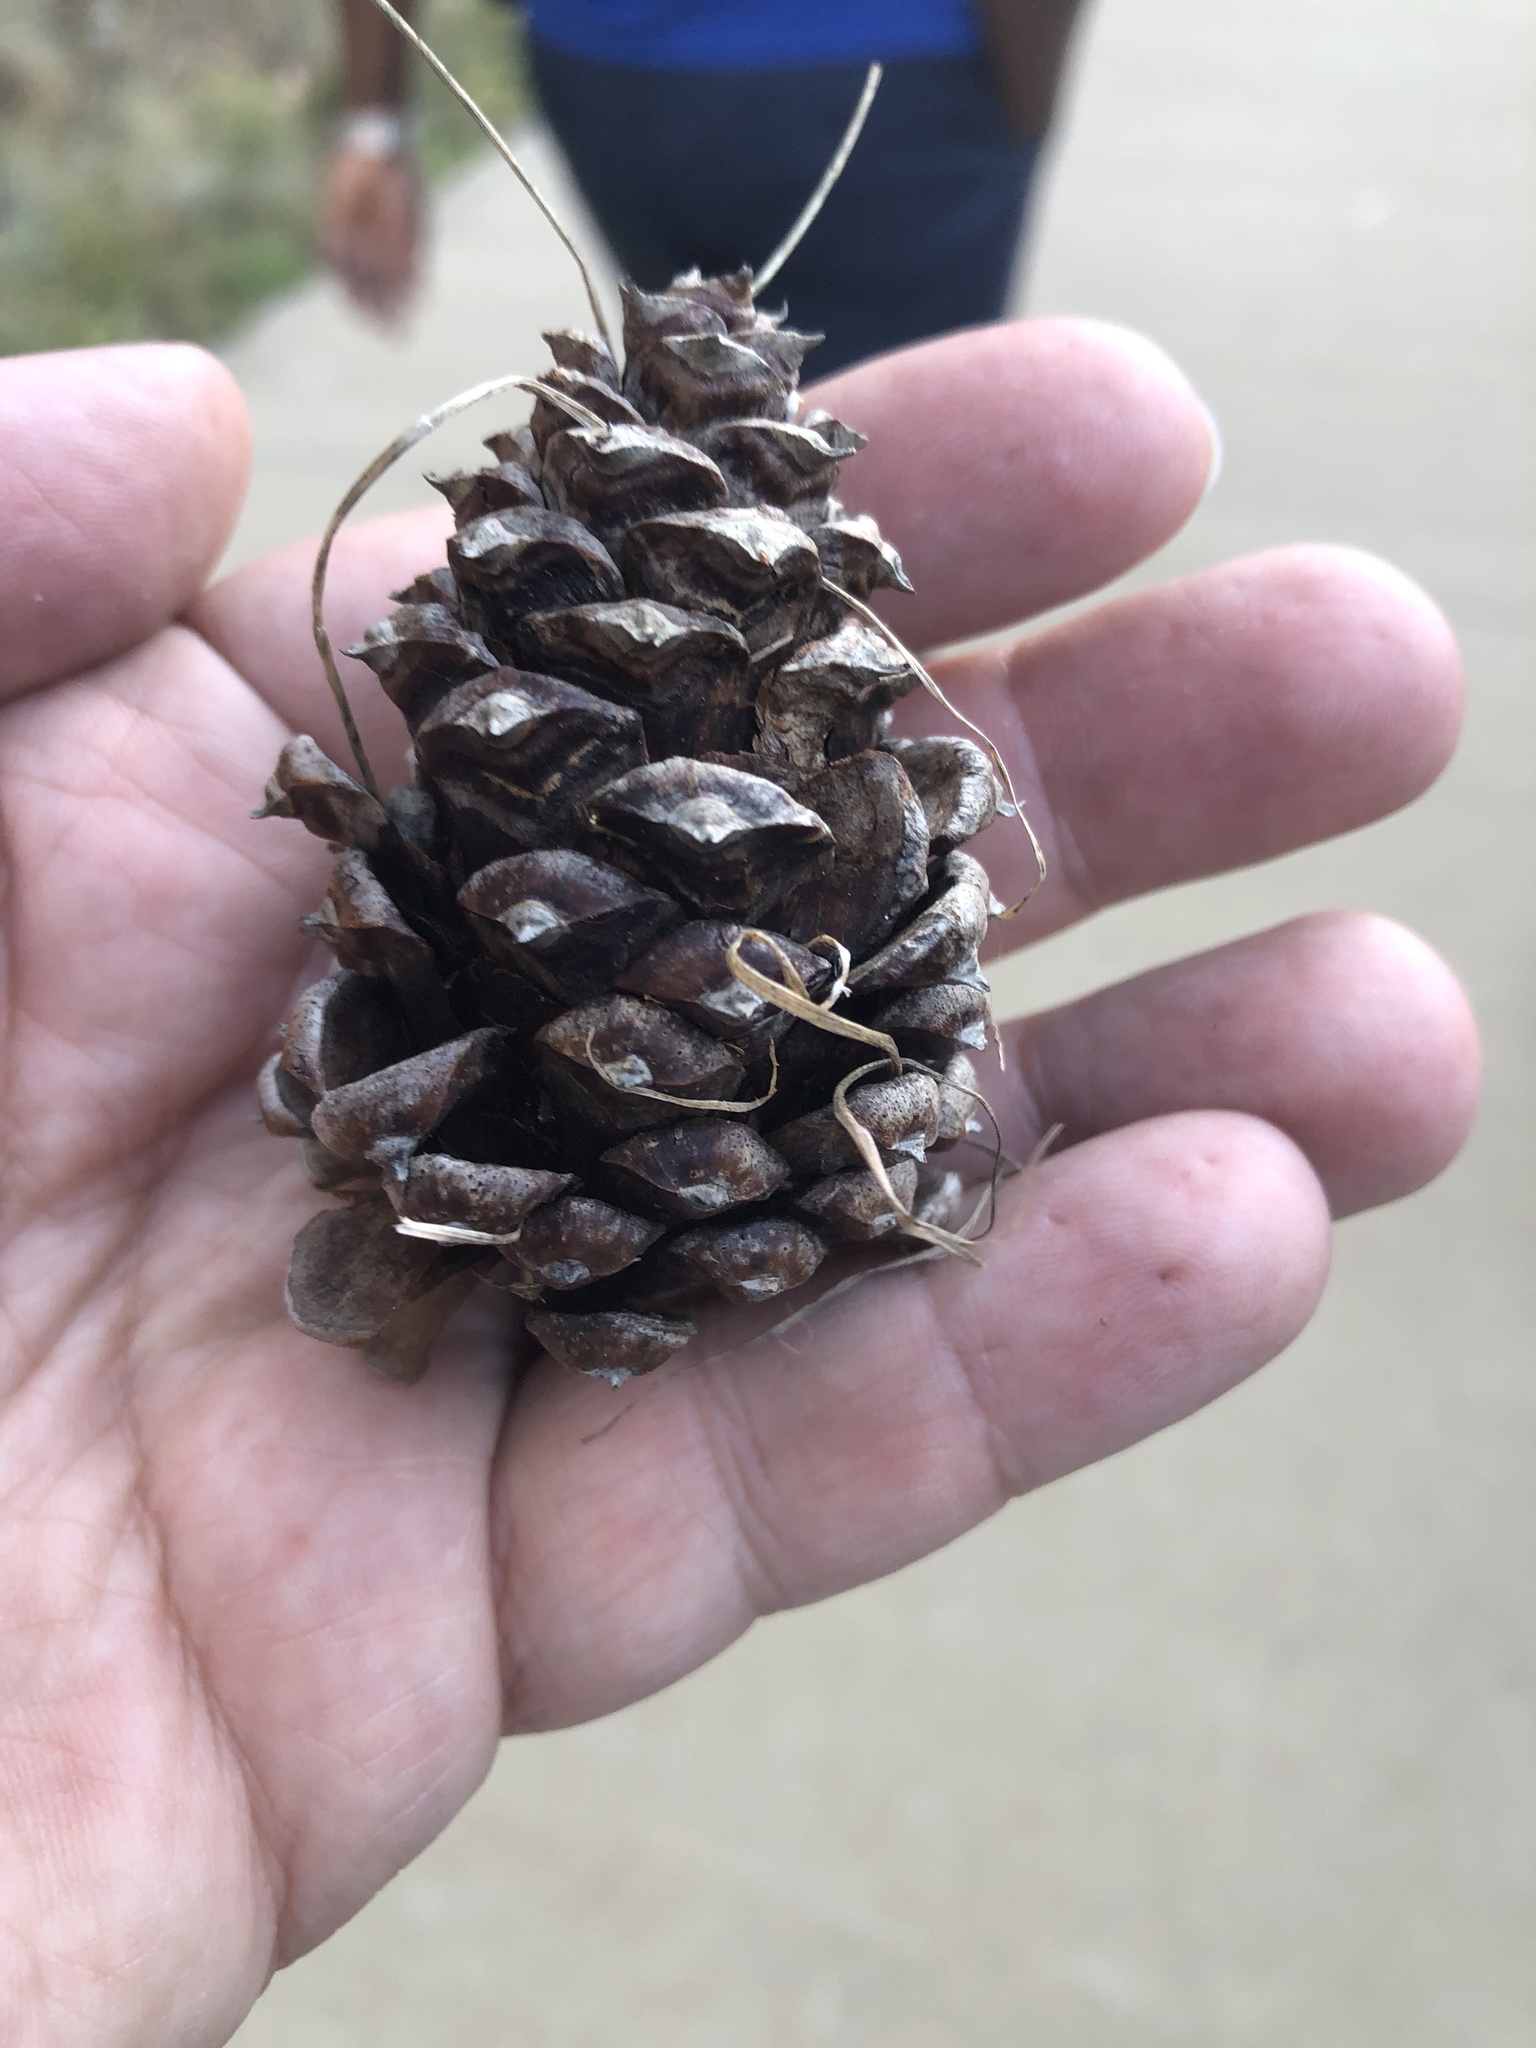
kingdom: Plantae
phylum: Tracheophyta
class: Pinopsida
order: Pinales
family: Pinaceae
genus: Pinus
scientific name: Pinus ponderosa
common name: Western yellow-pine
